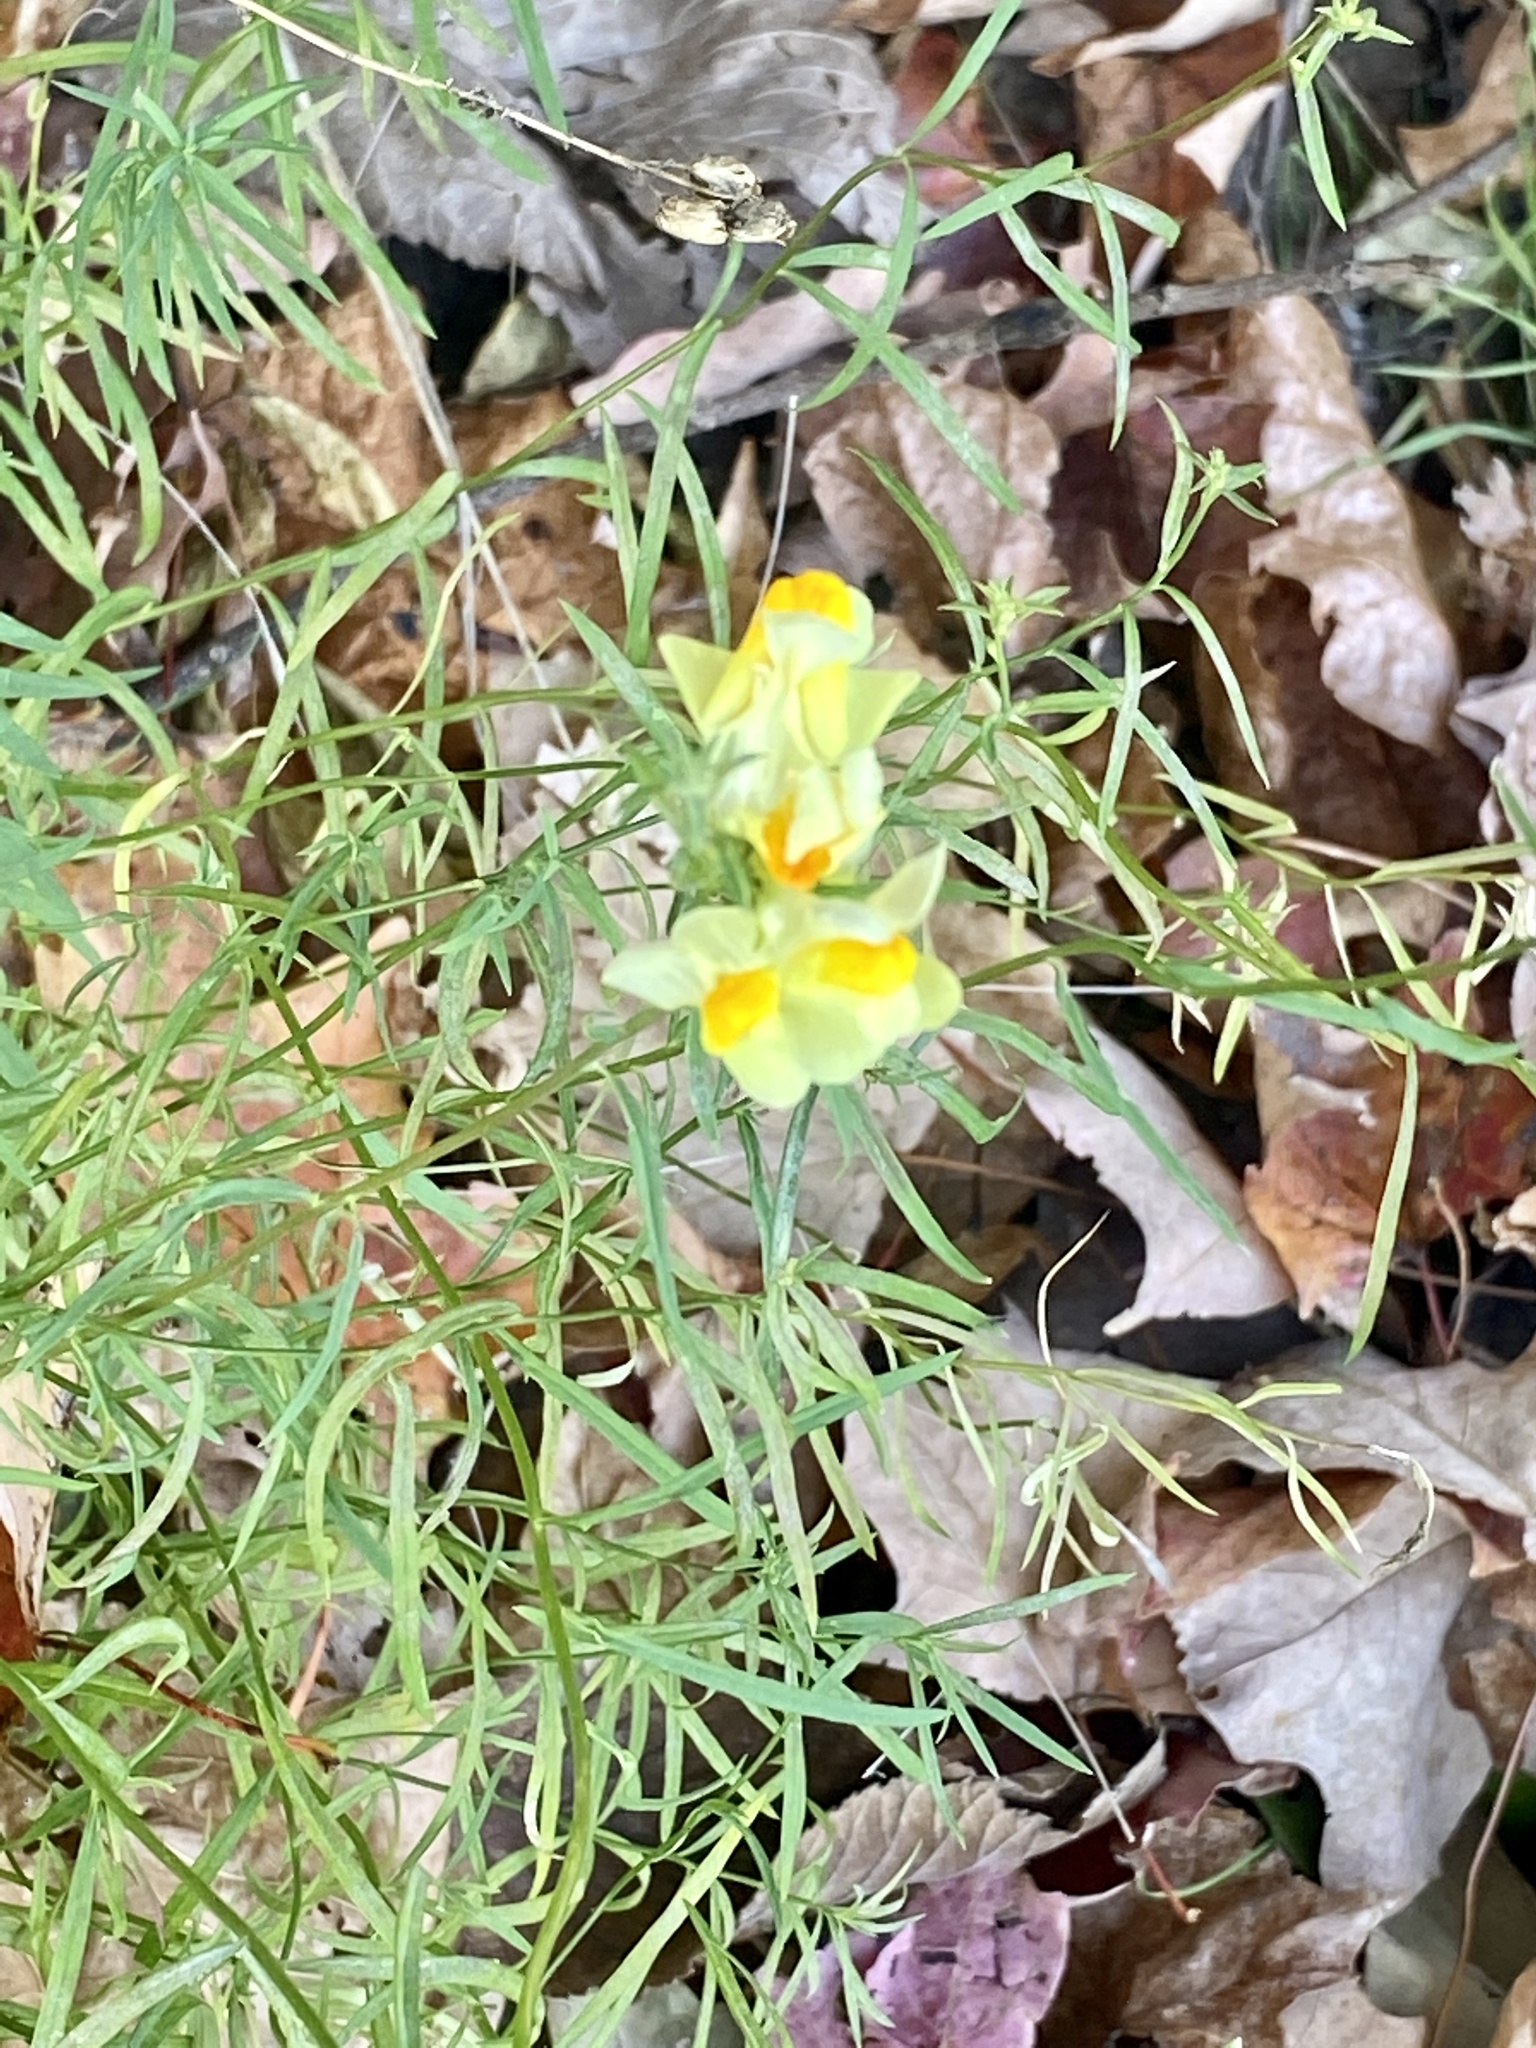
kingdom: Plantae
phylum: Tracheophyta
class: Magnoliopsida
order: Lamiales
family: Plantaginaceae
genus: Linaria
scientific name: Linaria vulgaris
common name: Butter and eggs
